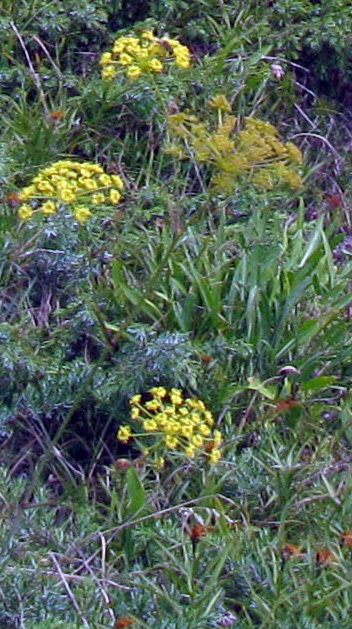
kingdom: Plantae
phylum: Tracheophyta
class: Magnoliopsida
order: Apiales
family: Apiaceae
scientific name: Apiaceae
